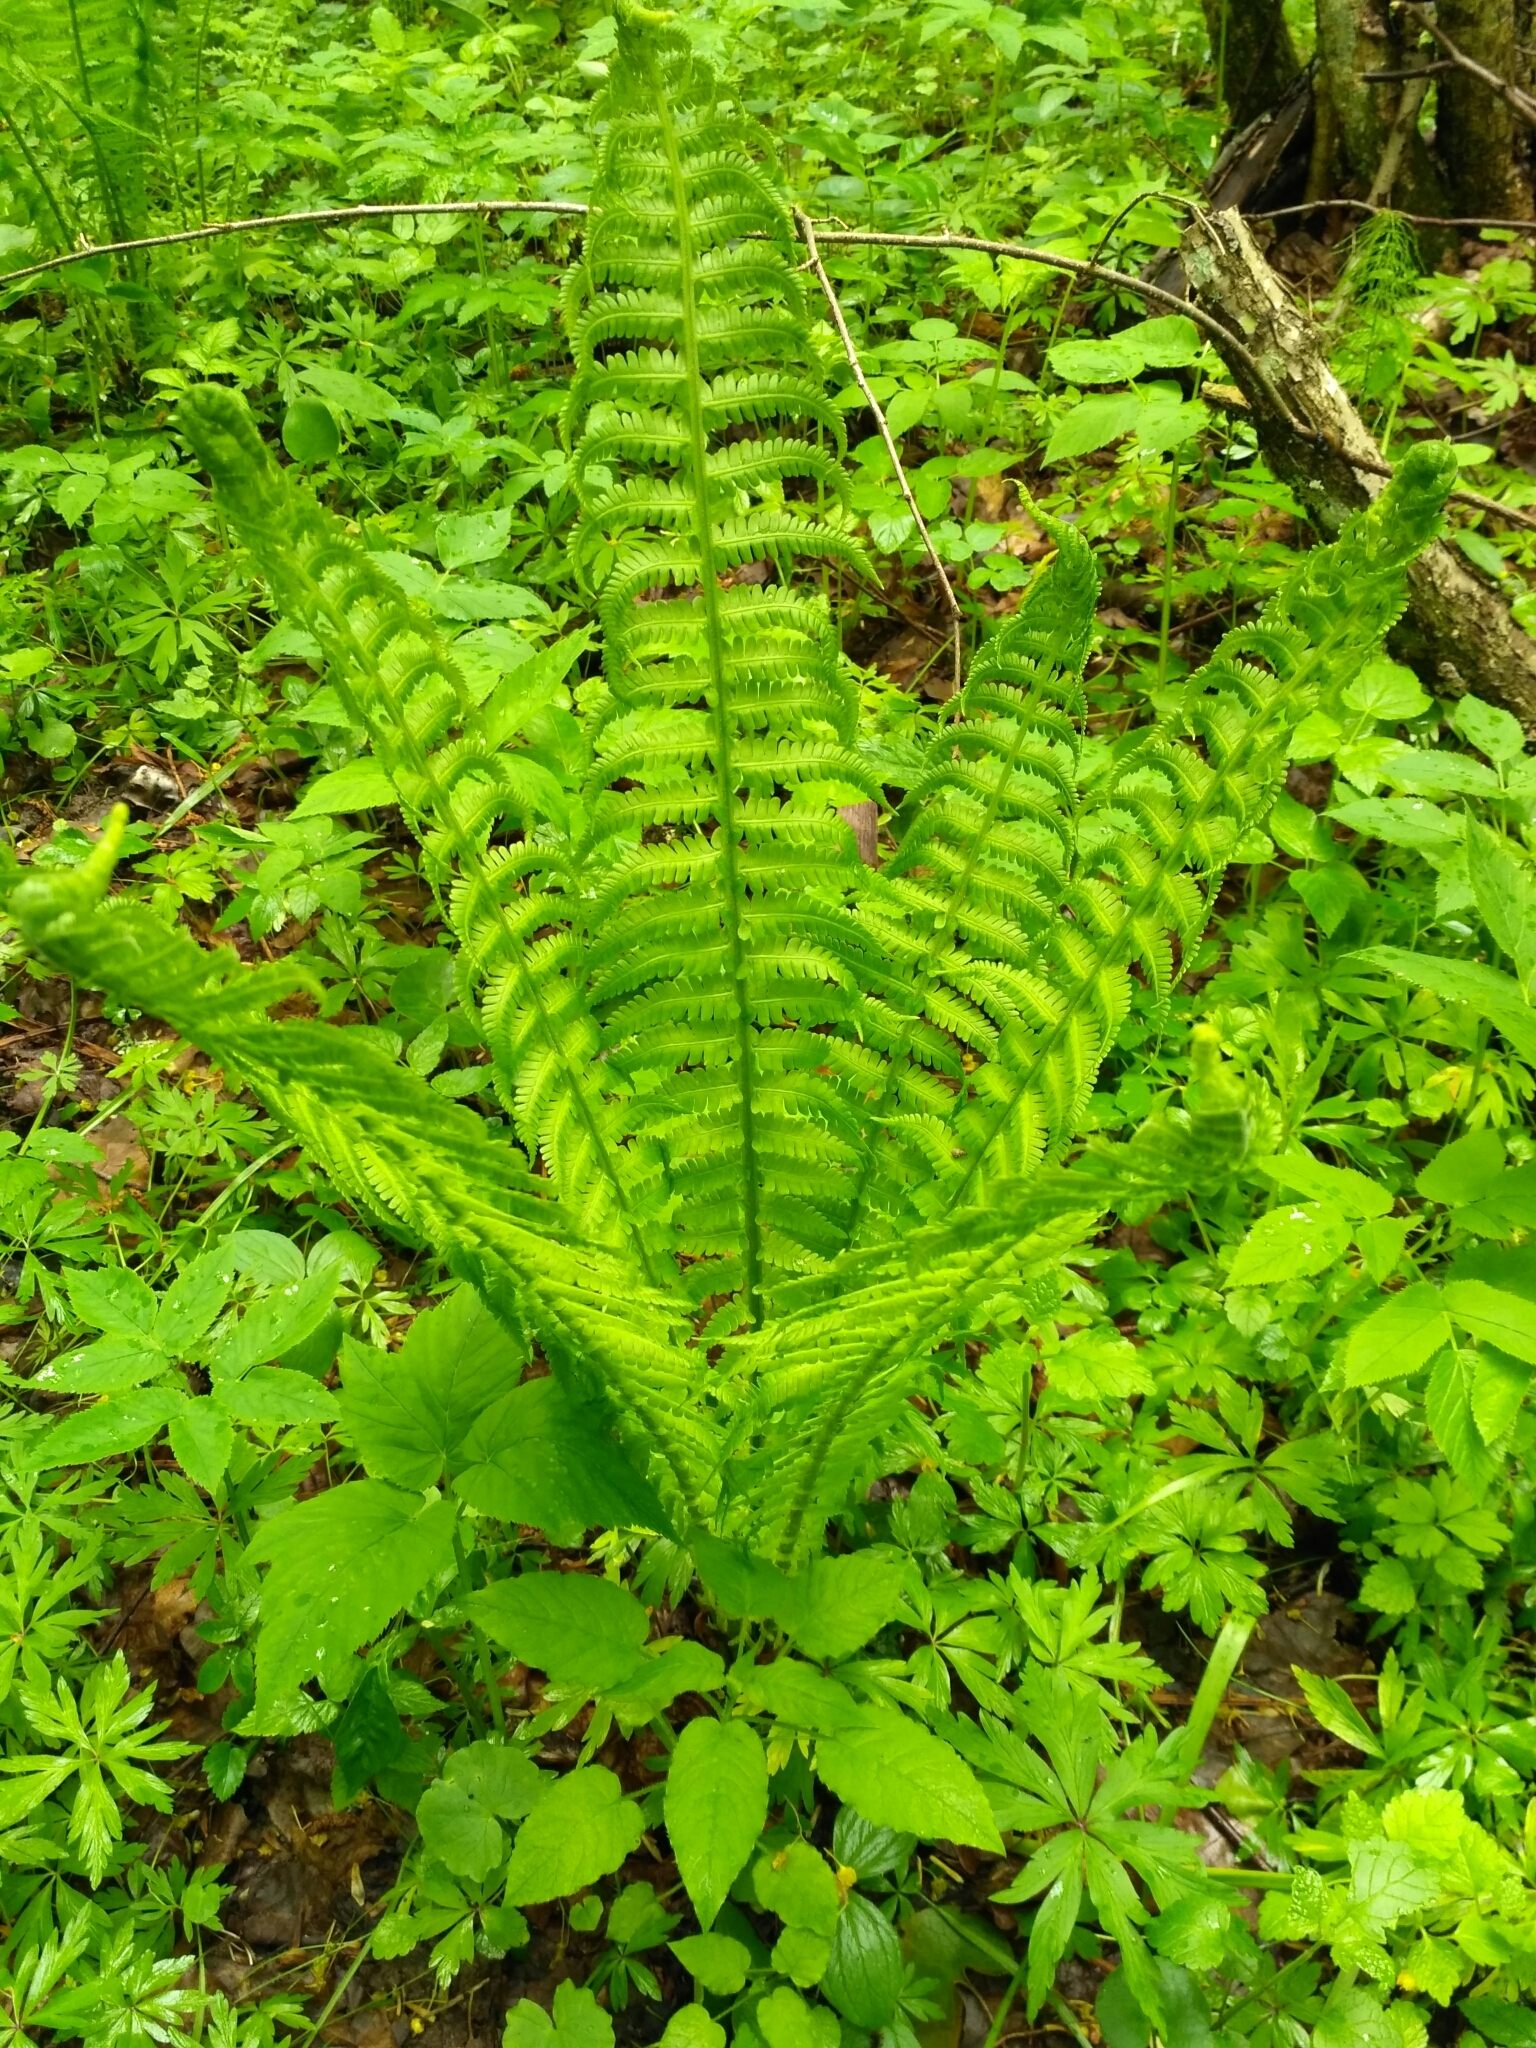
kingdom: Plantae
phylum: Tracheophyta
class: Polypodiopsida
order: Polypodiales
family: Onocleaceae
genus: Matteuccia
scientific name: Matteuccia struthiopteris
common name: Ostrich fern
